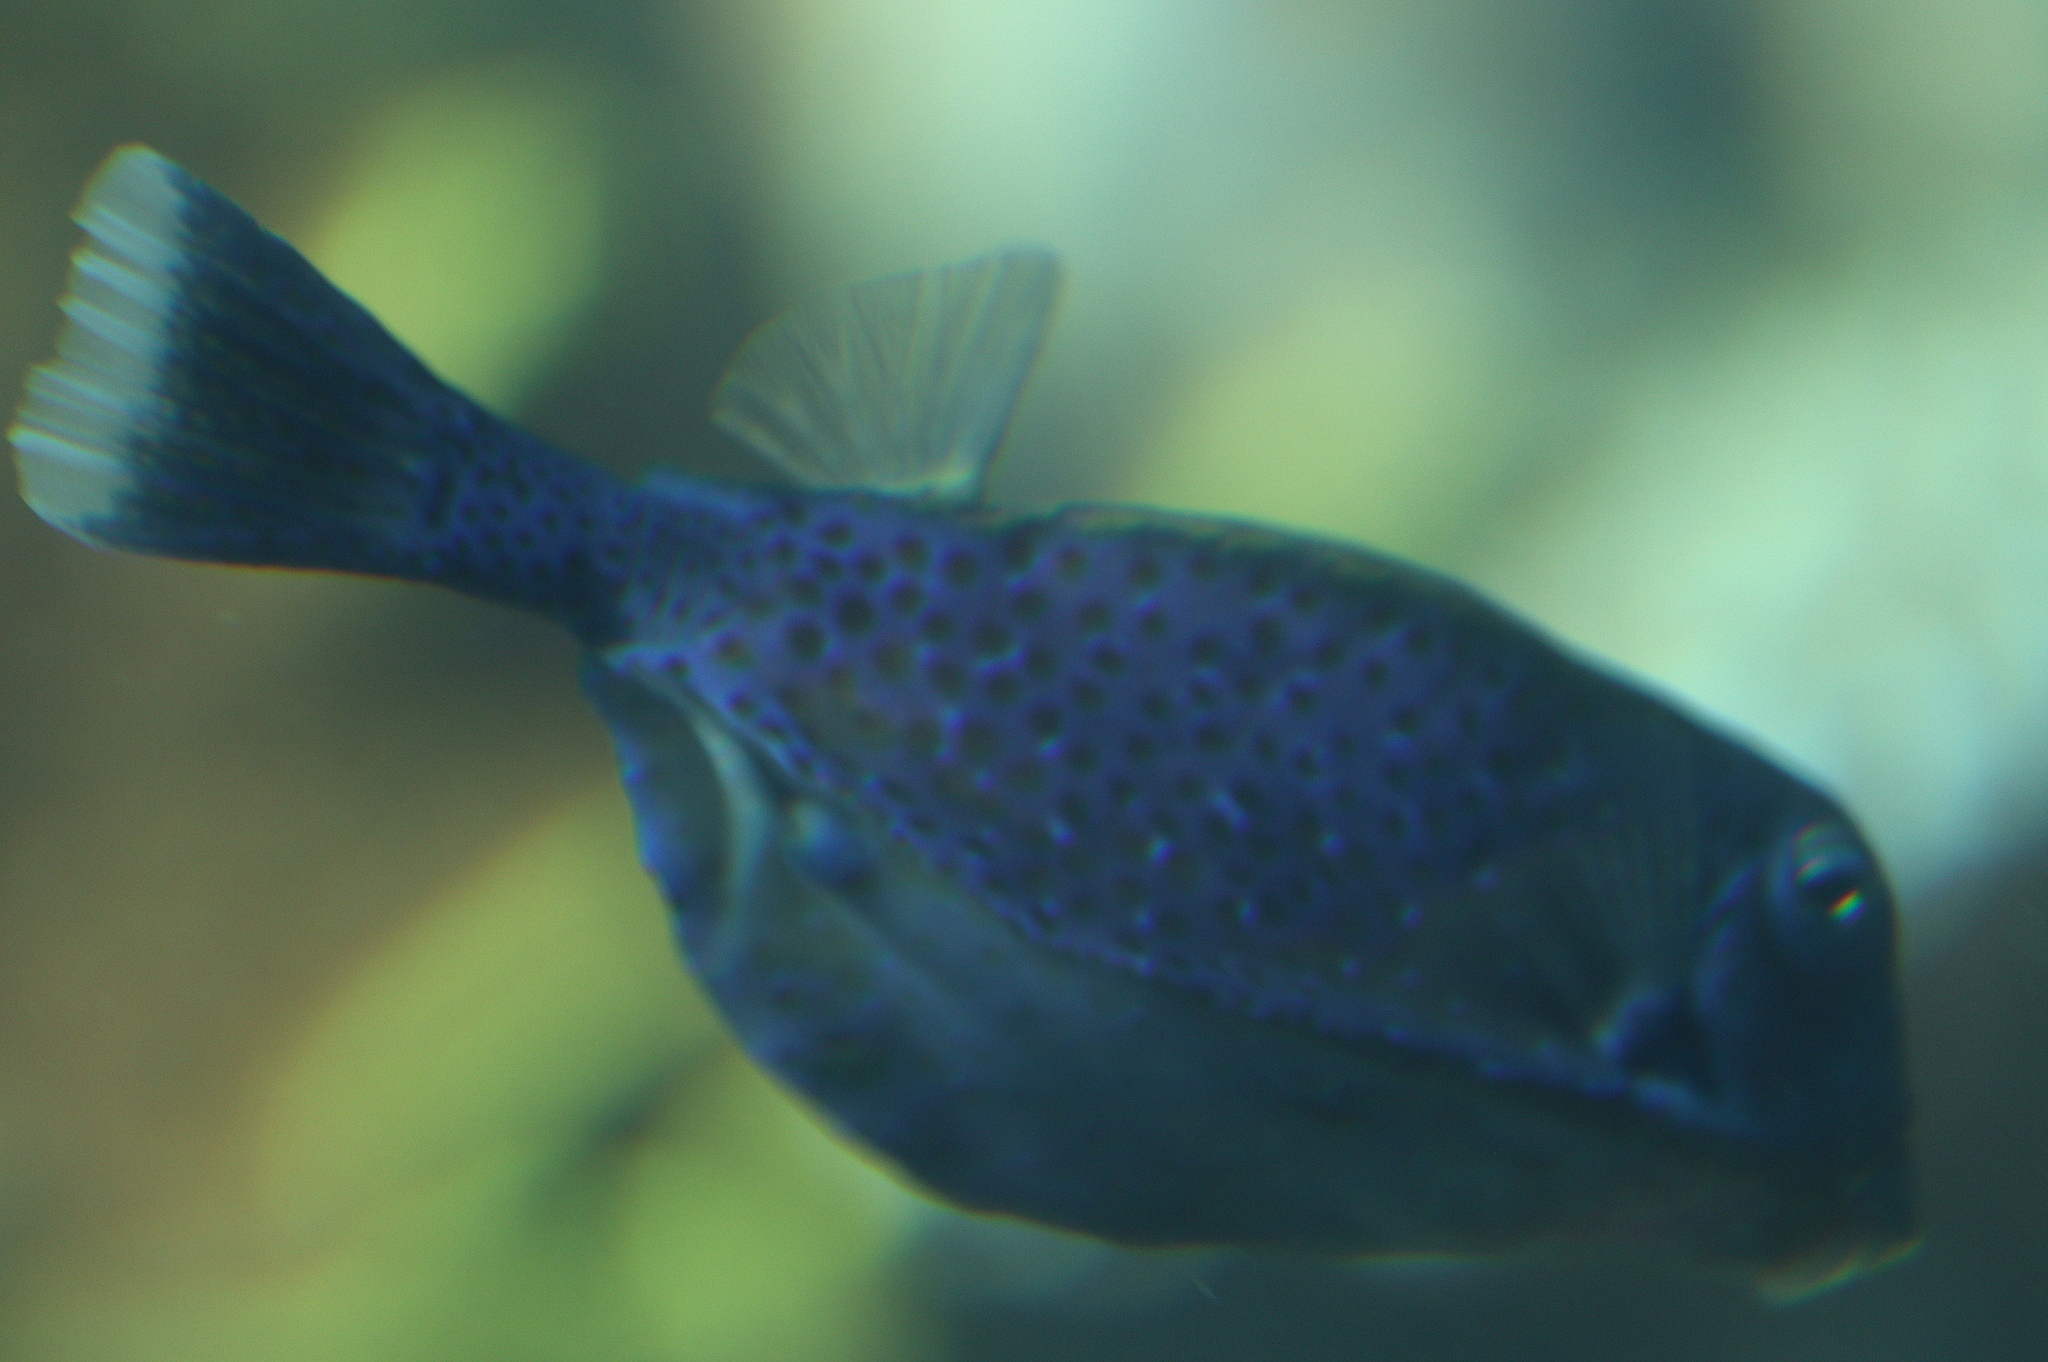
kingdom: Animalia
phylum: Chordata
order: Tetraodontiformes
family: Ostraciidae
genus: Ostracion
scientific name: Ostracion cyanurus
